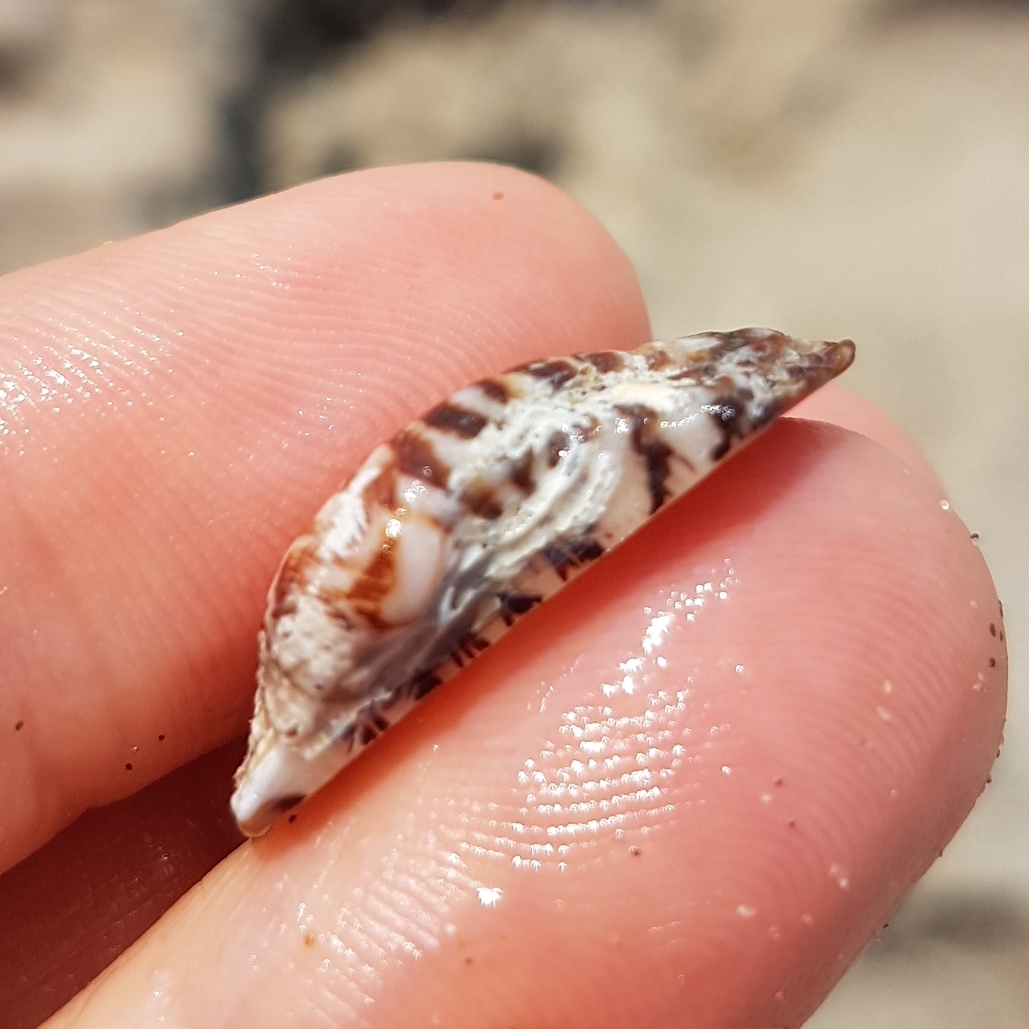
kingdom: Animalia
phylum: Mollusca
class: Bivalvia
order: Arcida
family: Arcidae
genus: Arca
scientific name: Arca noae
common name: Noah's arch
